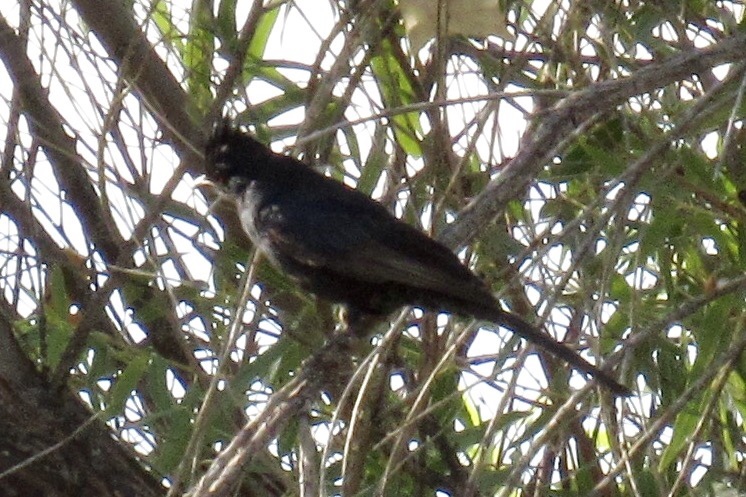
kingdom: Animalia
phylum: Chordata
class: Aves
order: Passeriformes
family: Ptilogonatidae
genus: Phainopepla
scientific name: Phainopepla nitens
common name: Phainopepla
